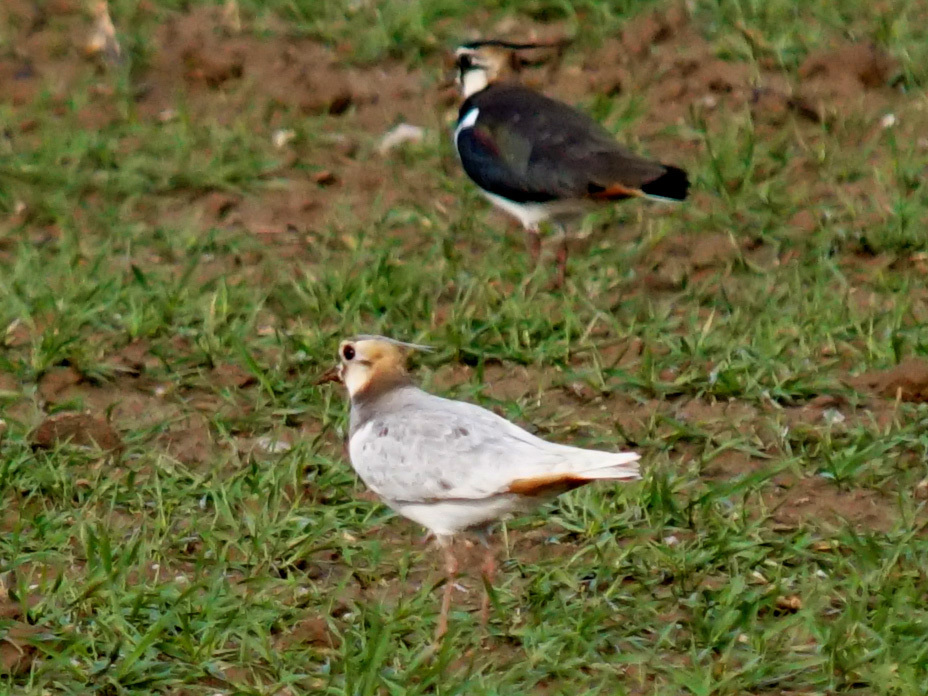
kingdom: Animalia
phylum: Chordata
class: Aves
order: Charadriiformes
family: Charadriidae
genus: Vanellus
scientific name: Vanellus vanellus
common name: Northern lapwing
